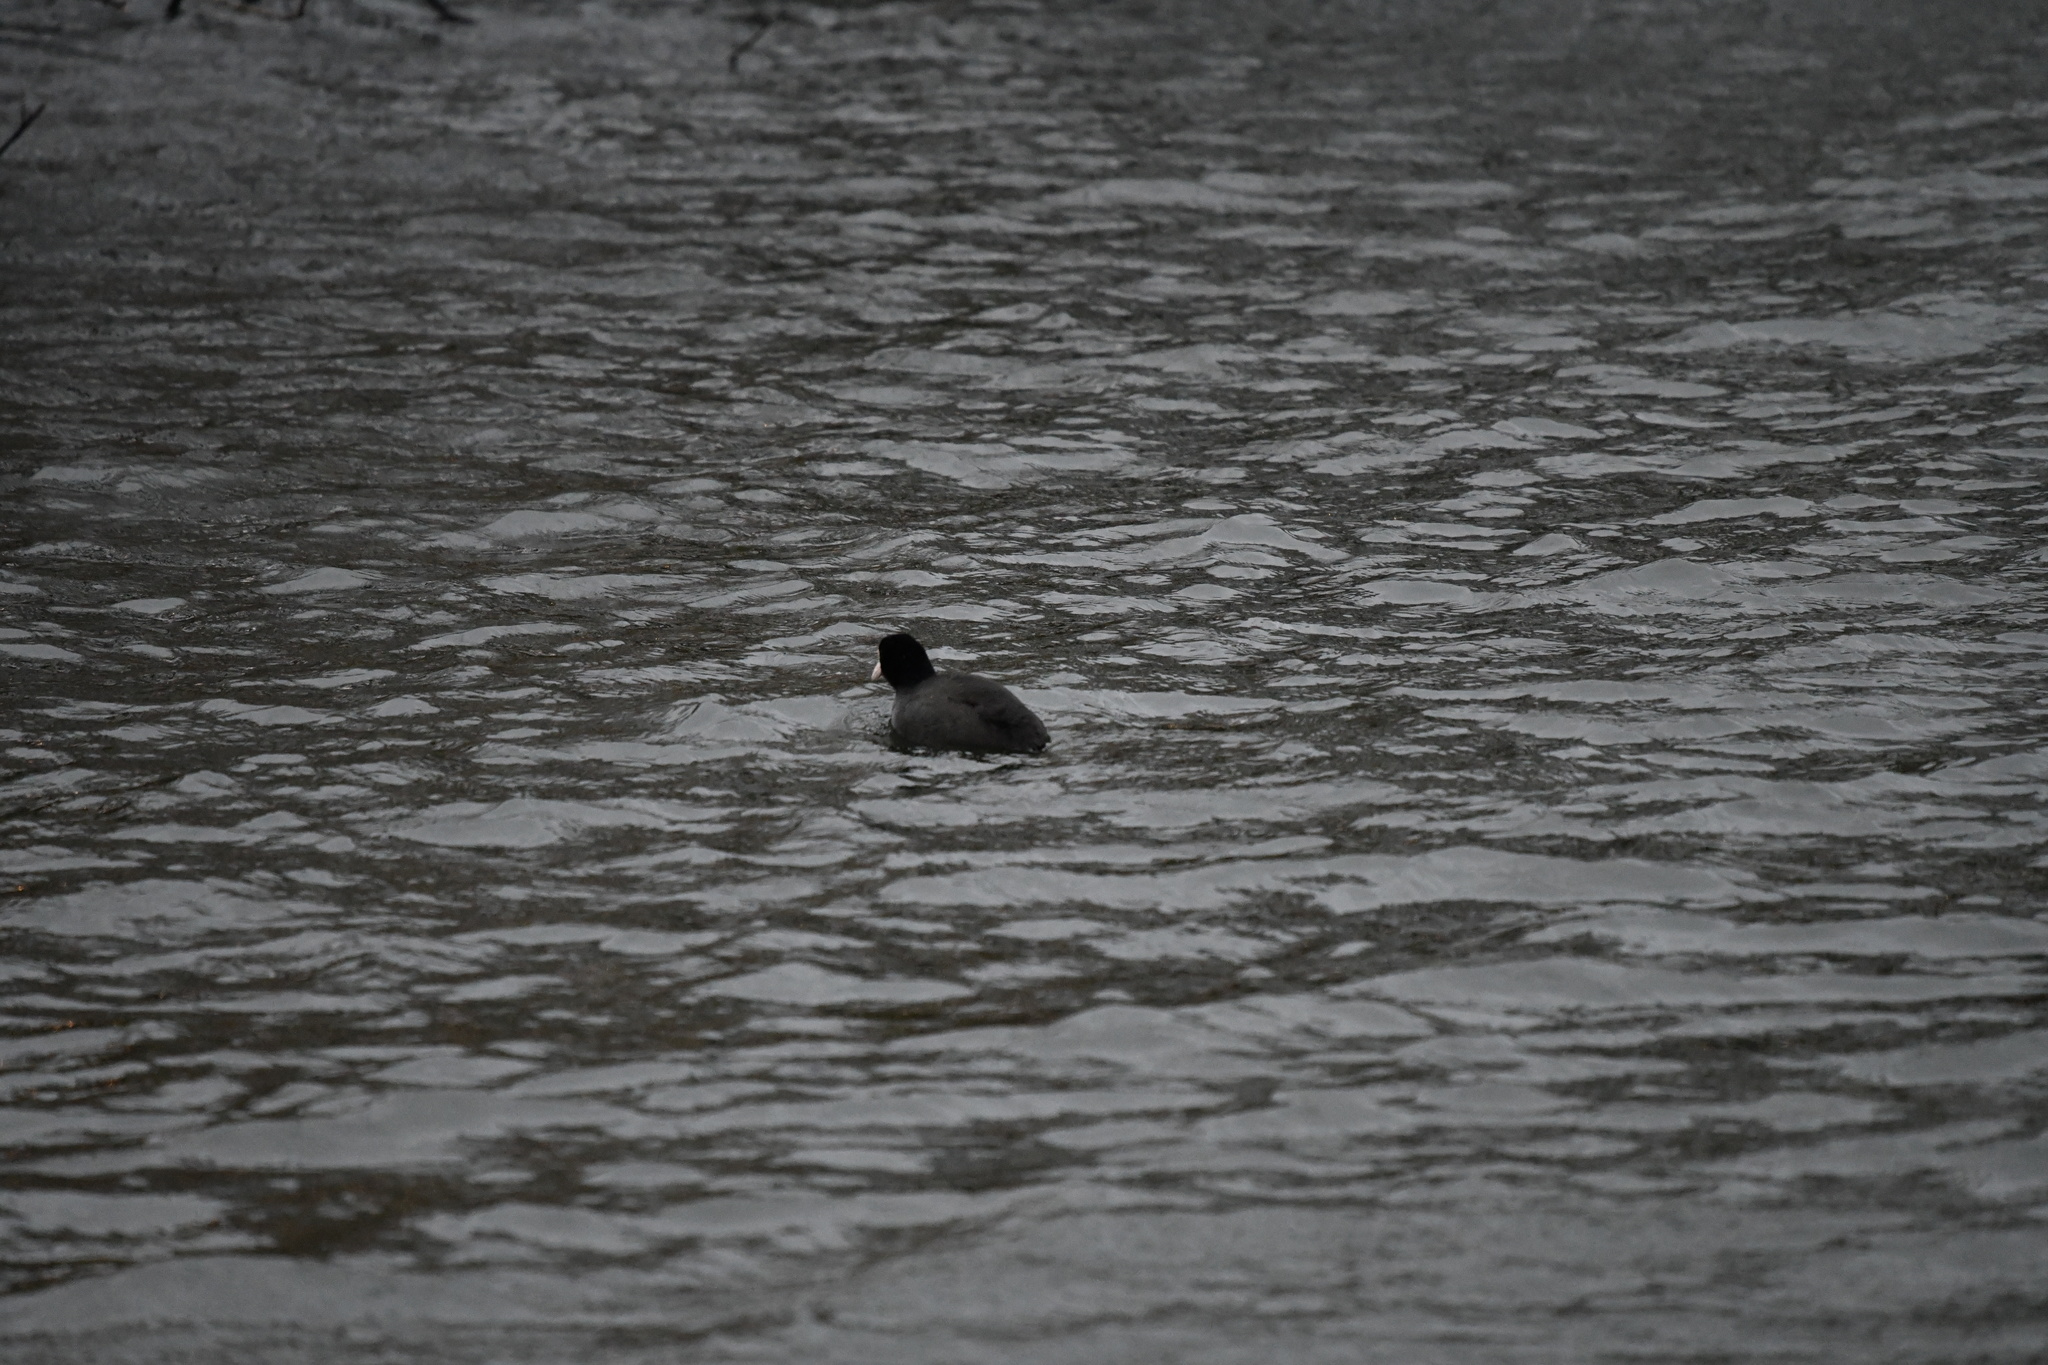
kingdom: Animalia
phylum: Chordata
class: Aves
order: Gruiformes
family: Rallidae
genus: Fulica
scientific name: Fulica atra
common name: Eurasian coot
